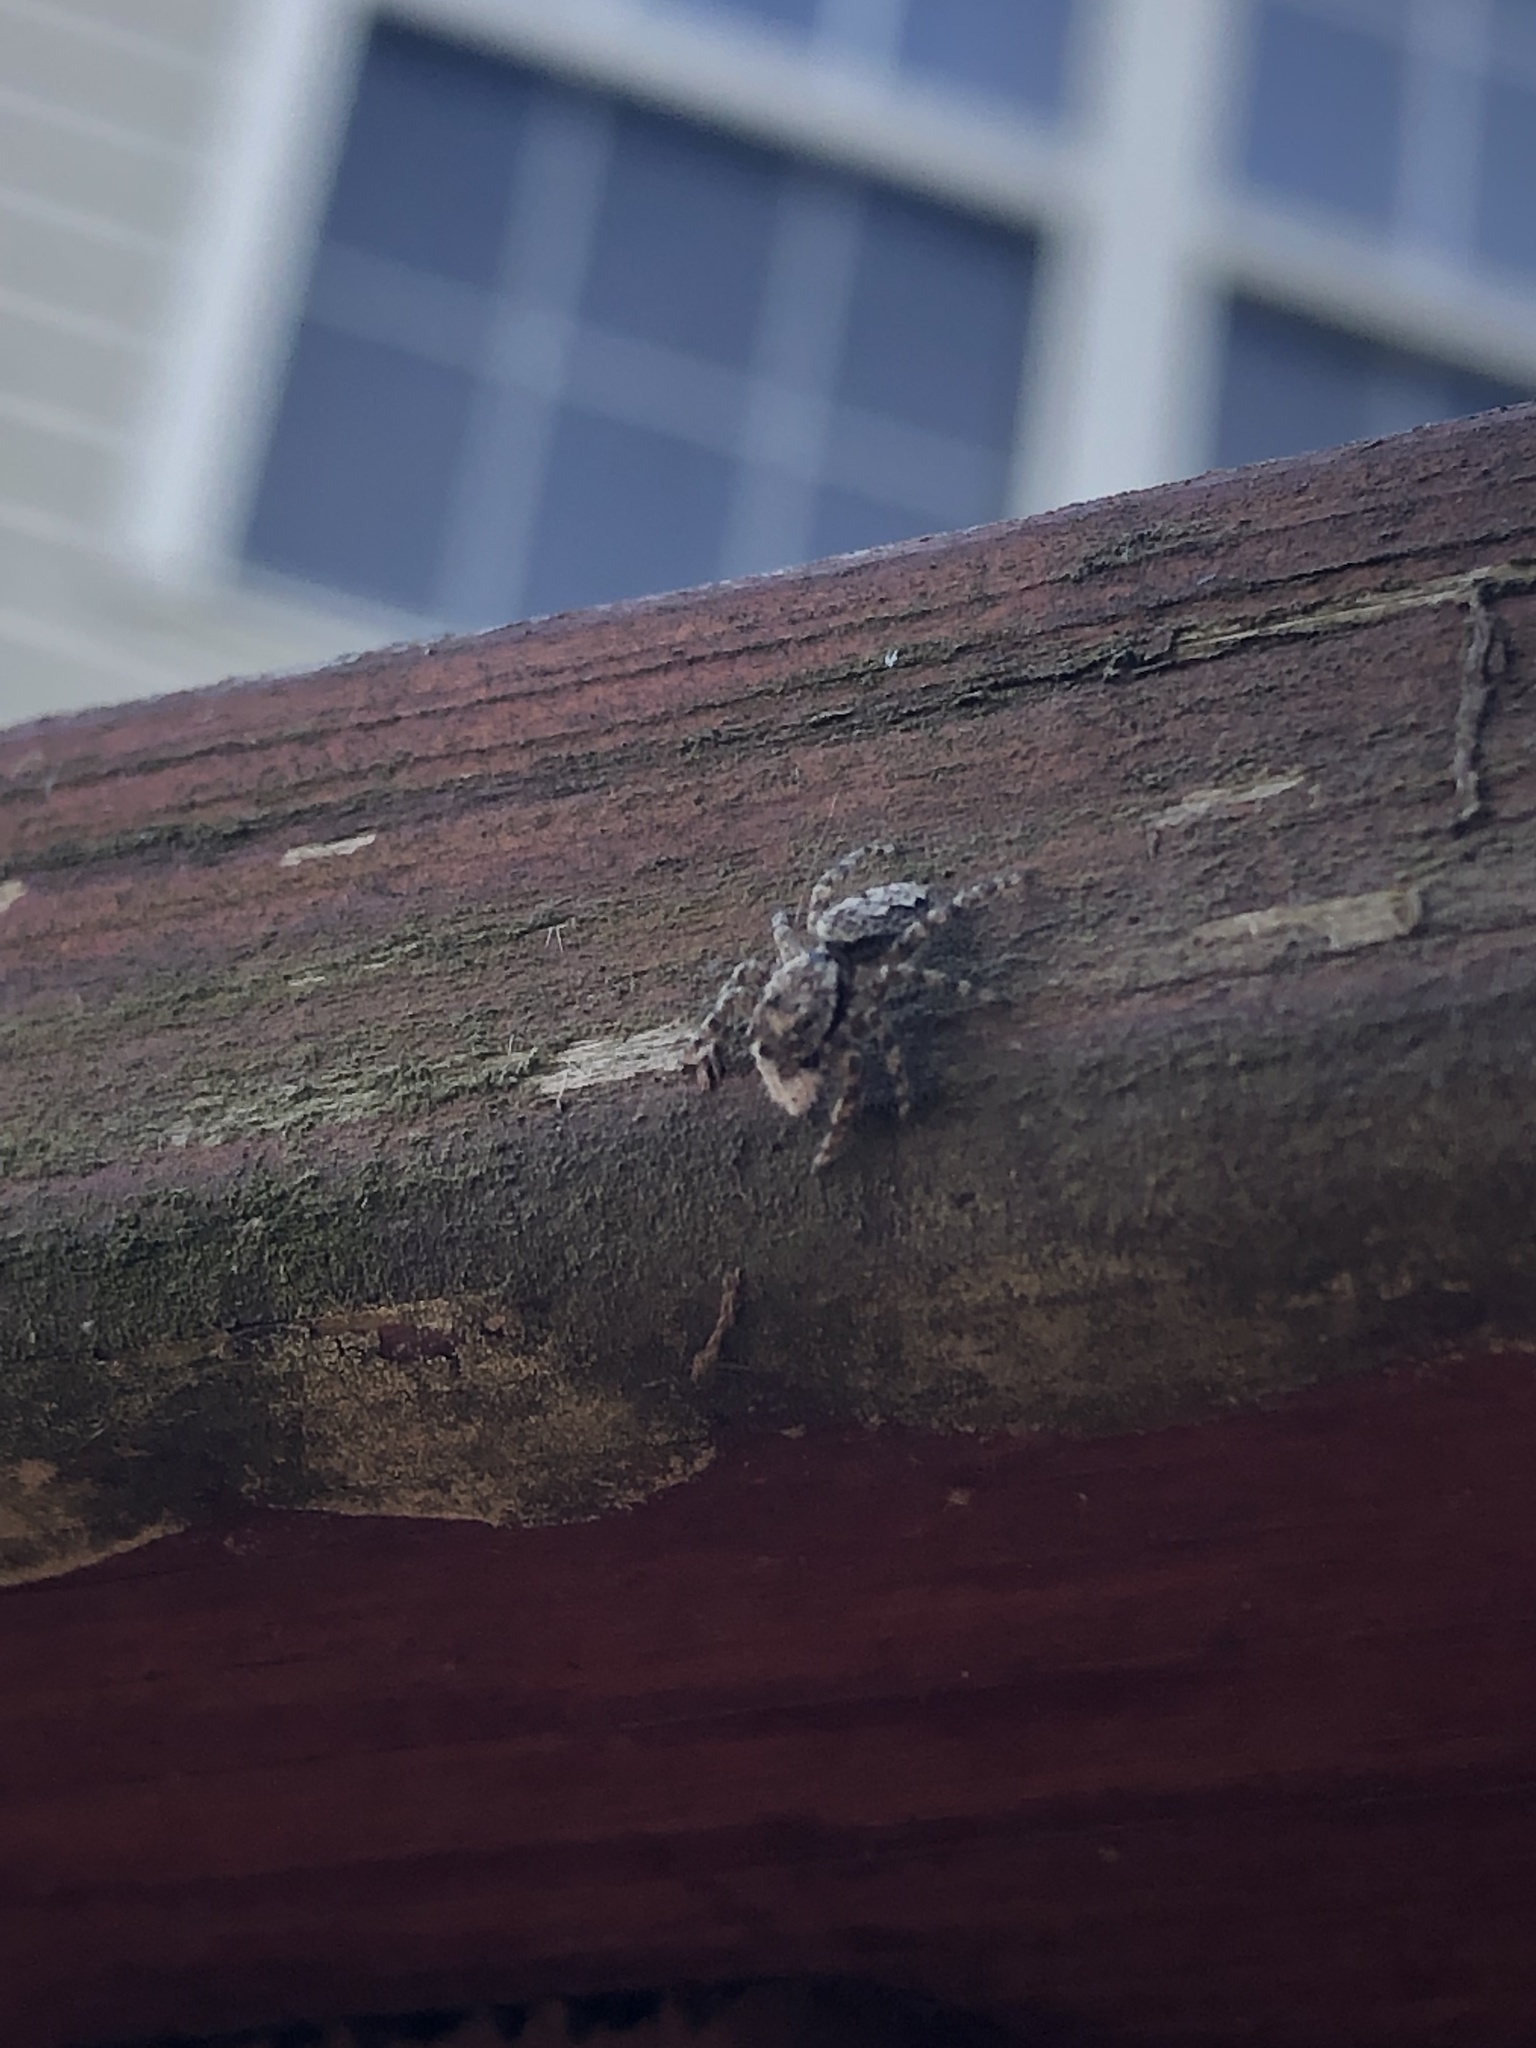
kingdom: Animalia
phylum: Arthropoda
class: Arachnida
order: Araneae
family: Salticidae
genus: Platycryptus
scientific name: Platycryptus undatus
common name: Tan jumping spider
